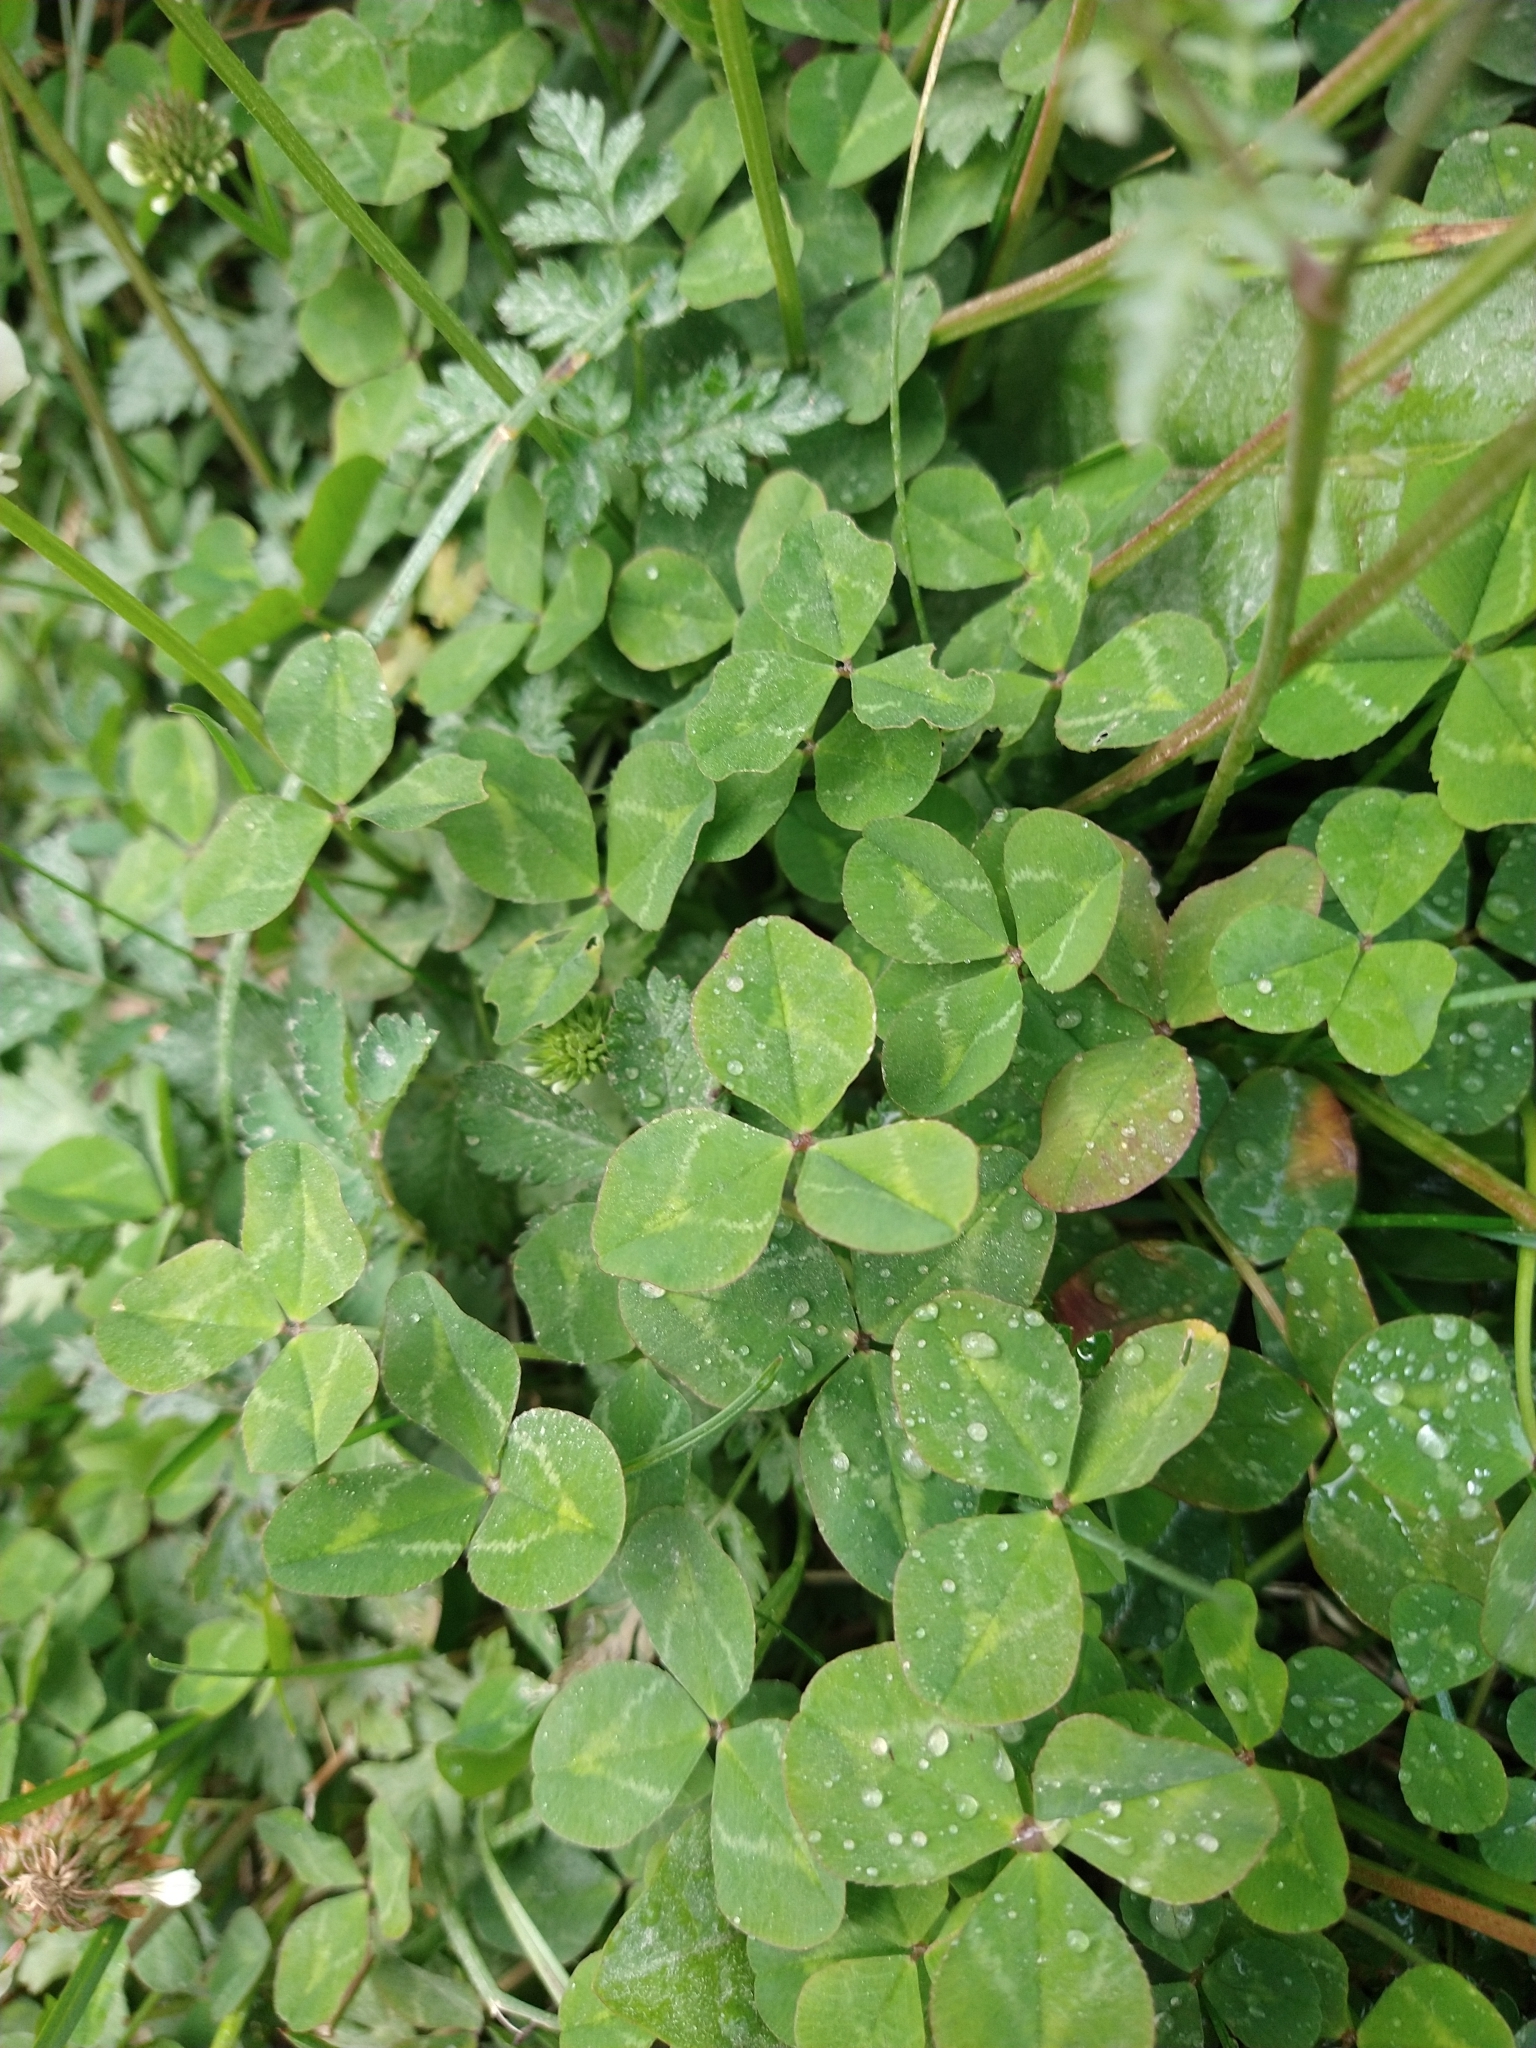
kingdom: Plantae
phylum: Tracheophyta
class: Magnoliopsida
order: Fabales
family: Fabaceae
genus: Trifolium
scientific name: Trifolium repens
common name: White clover
